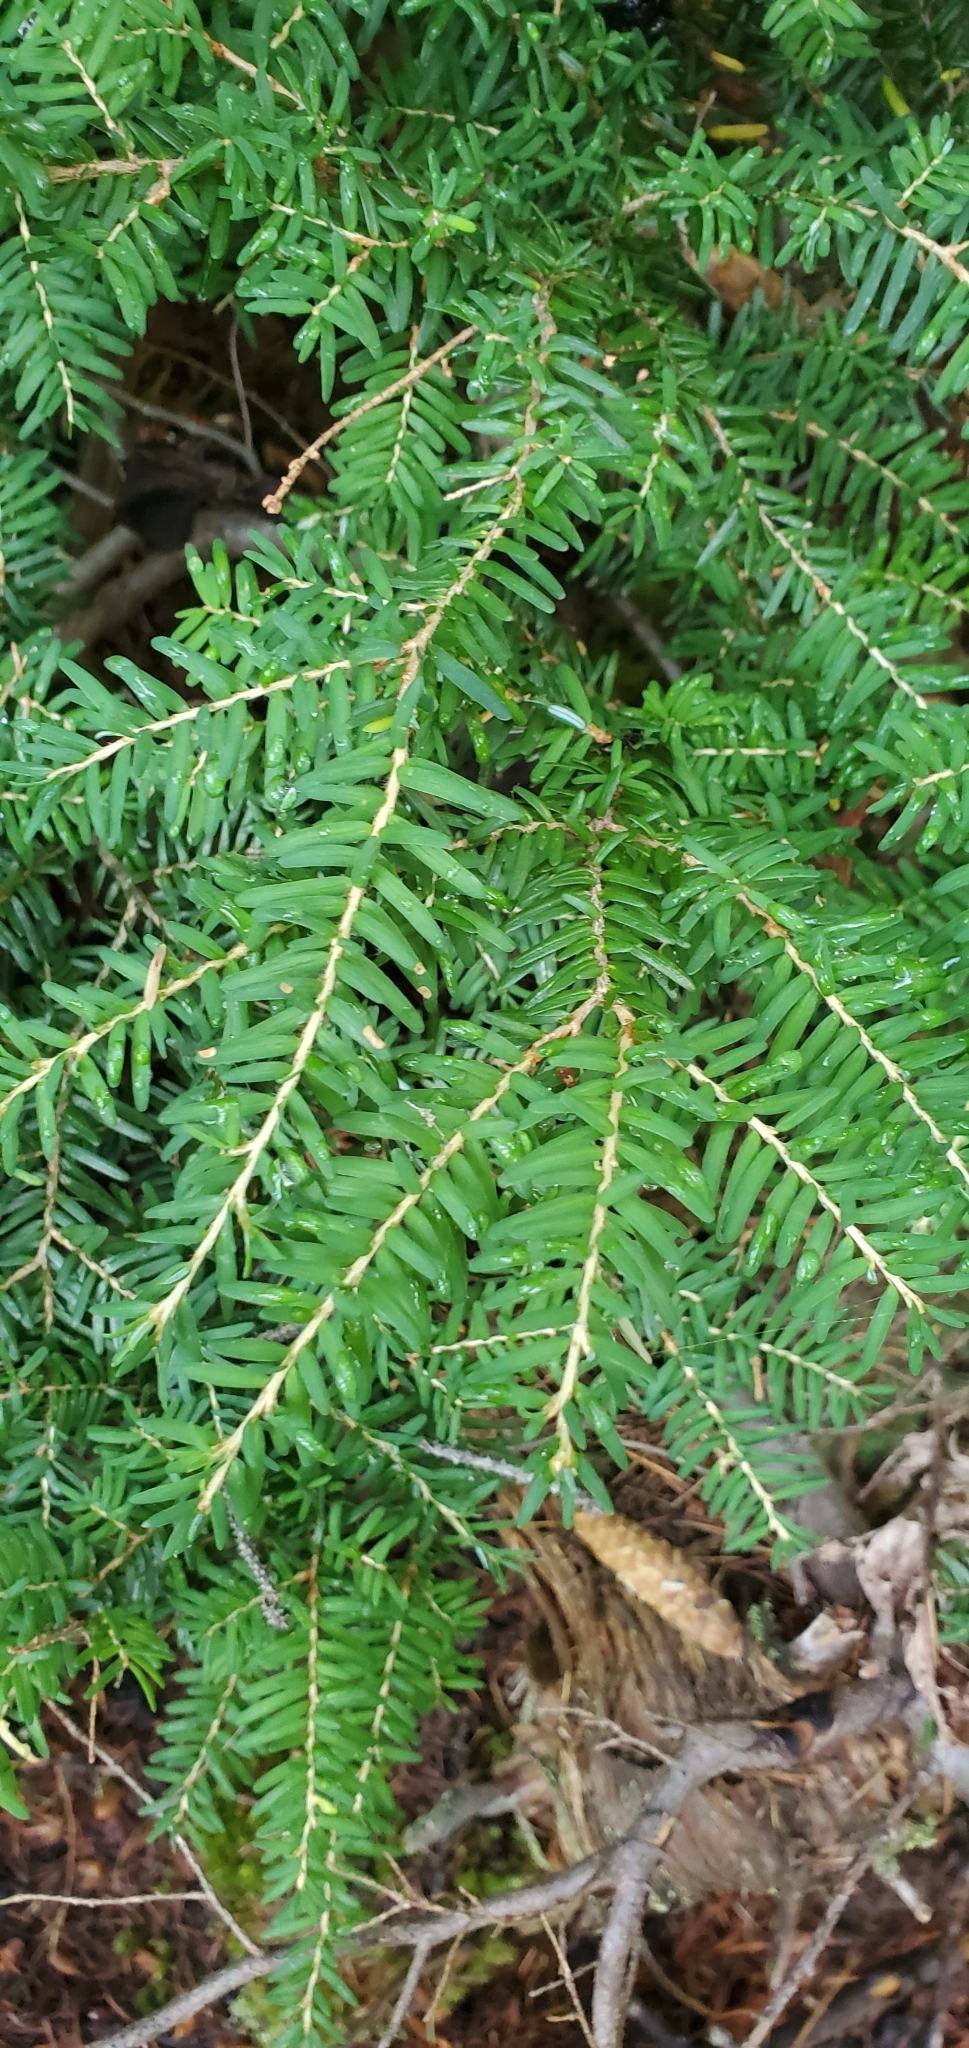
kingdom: Plantae
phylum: Tracheophyta
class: Pinopsida
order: Pinales
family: Pinaceae
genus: Tsuga
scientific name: Tsuga heterophylla
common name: Western hemlock
